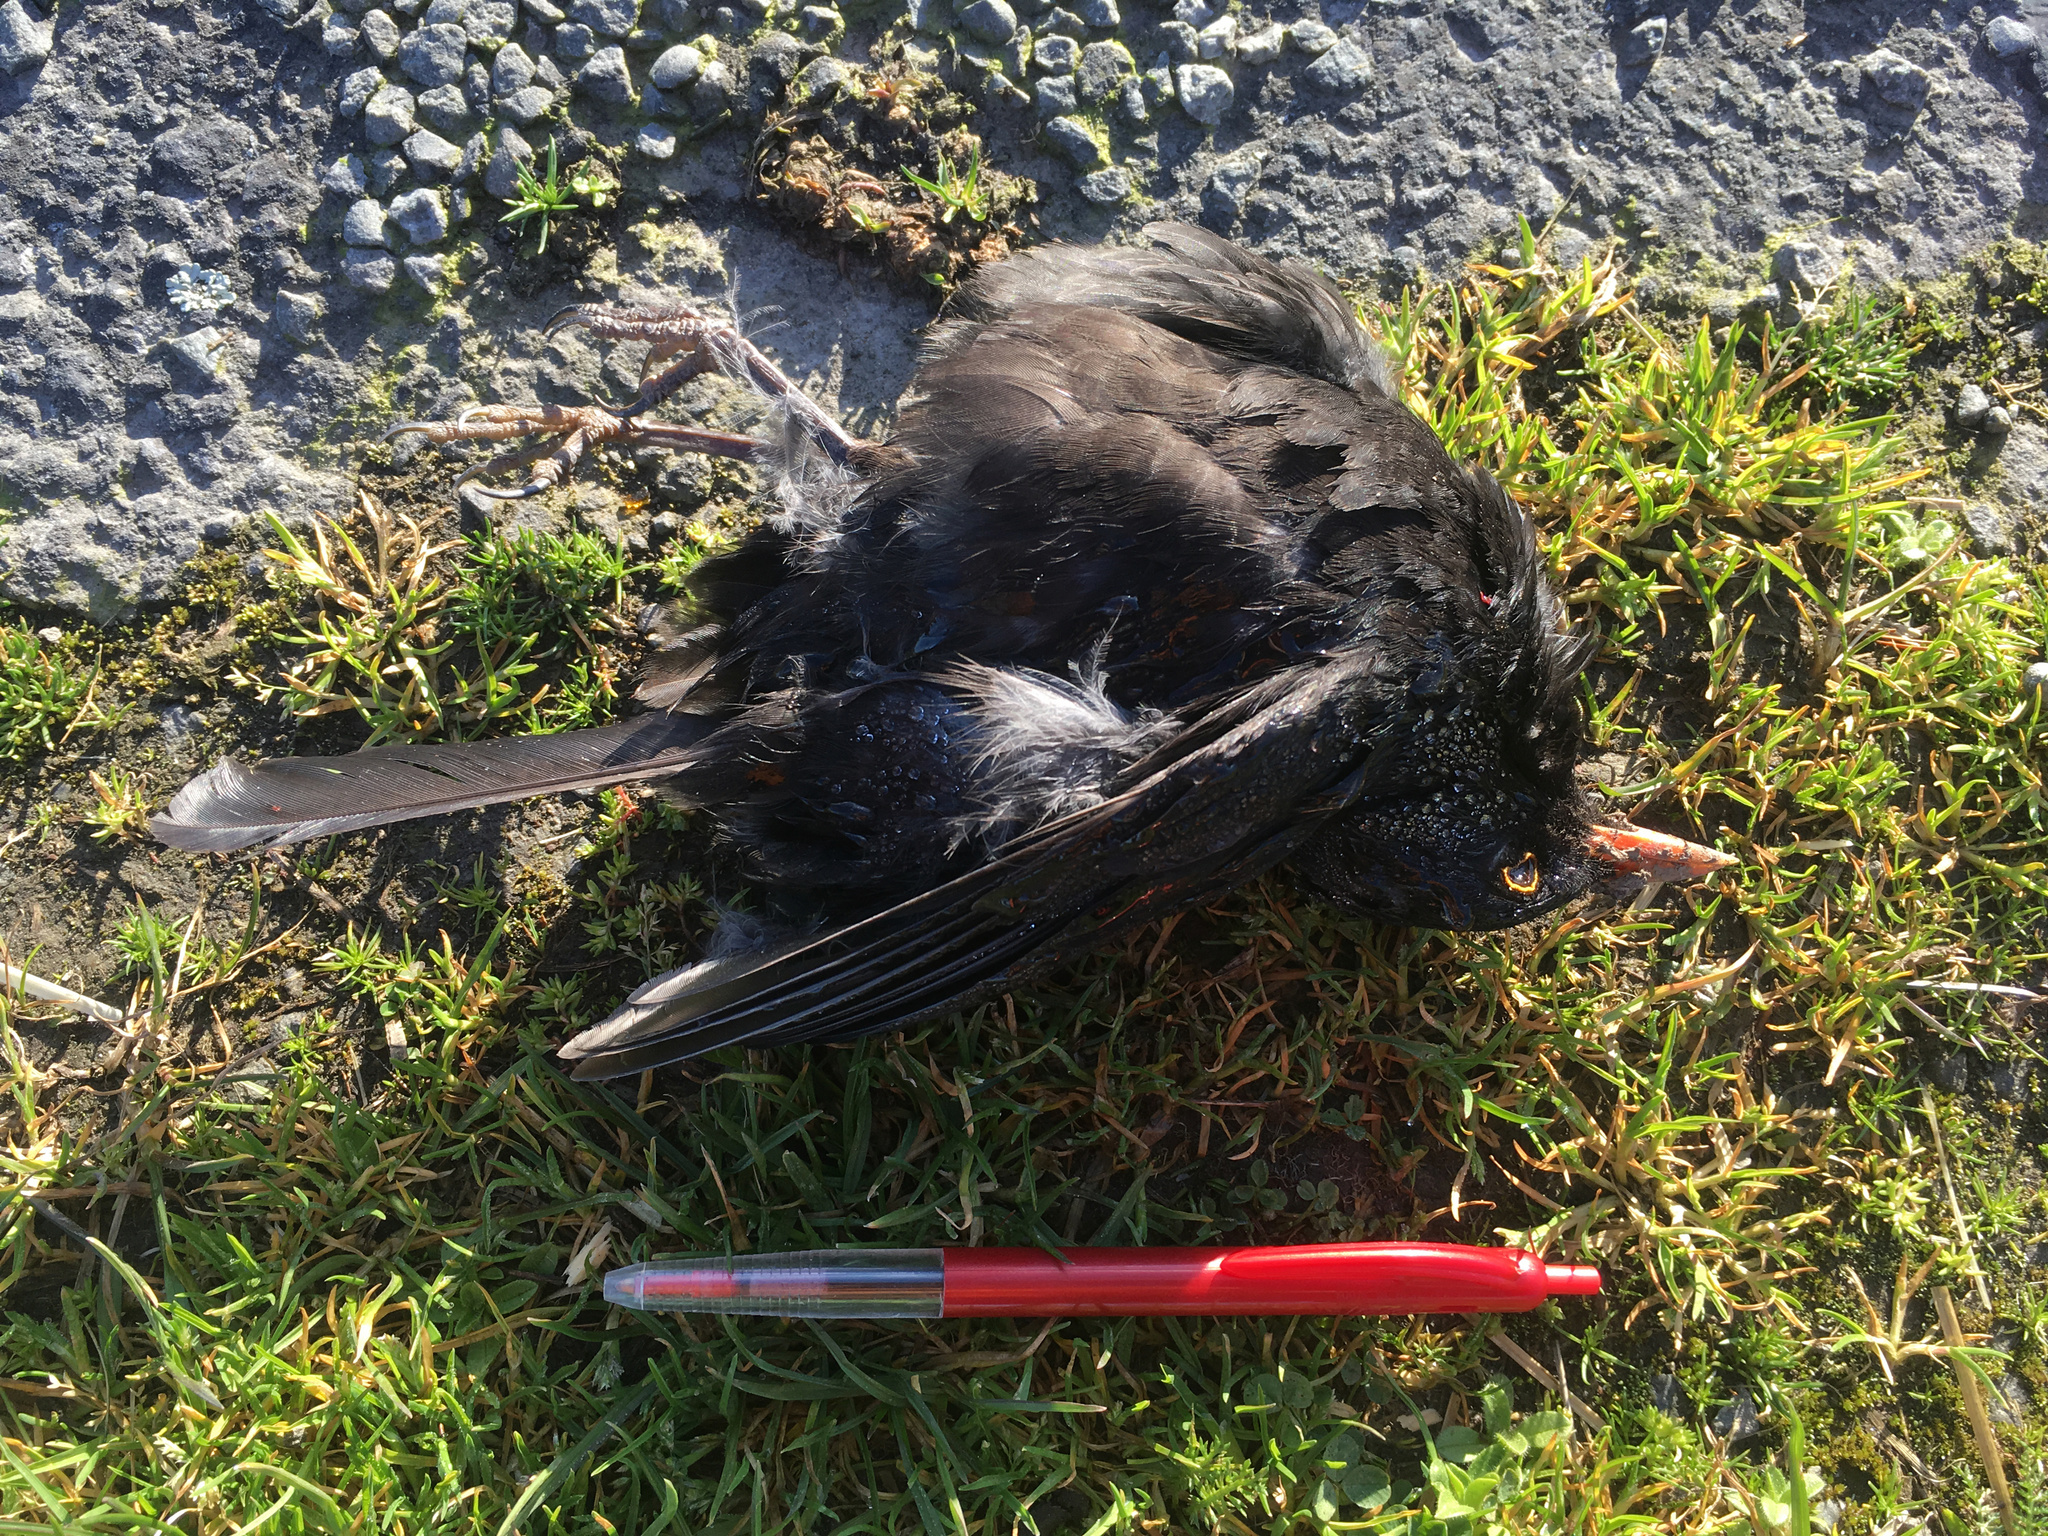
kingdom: Animalia
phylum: Chordata
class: Aves
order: Passeriformes
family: Turdidae
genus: Turdus
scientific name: Turdus merula
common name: Common blackbird
